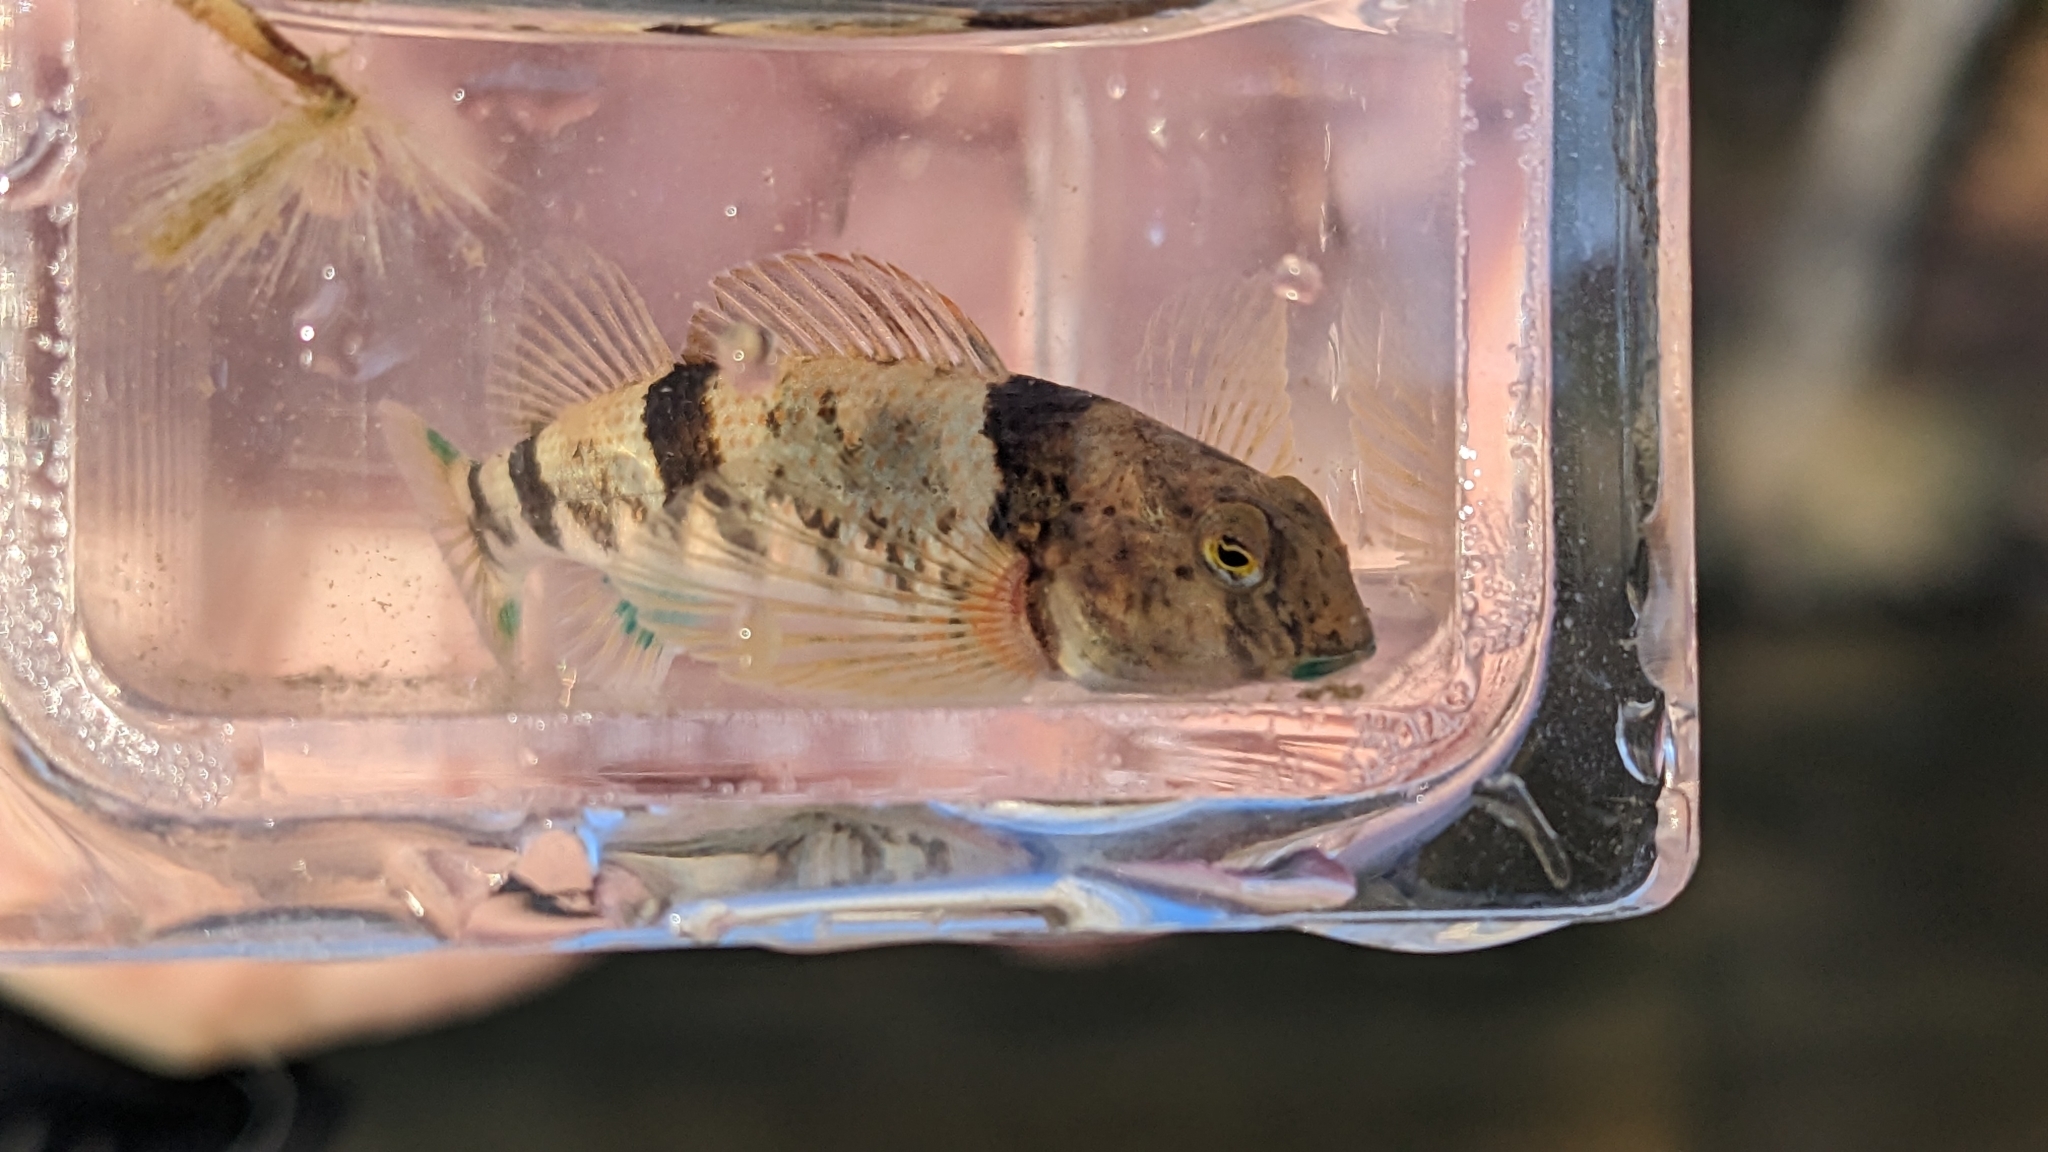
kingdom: Animalia
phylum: Chordata
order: Perciformes
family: Percidae
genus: Etheostoma
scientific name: Etheostoma blennius
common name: Blenny darter
